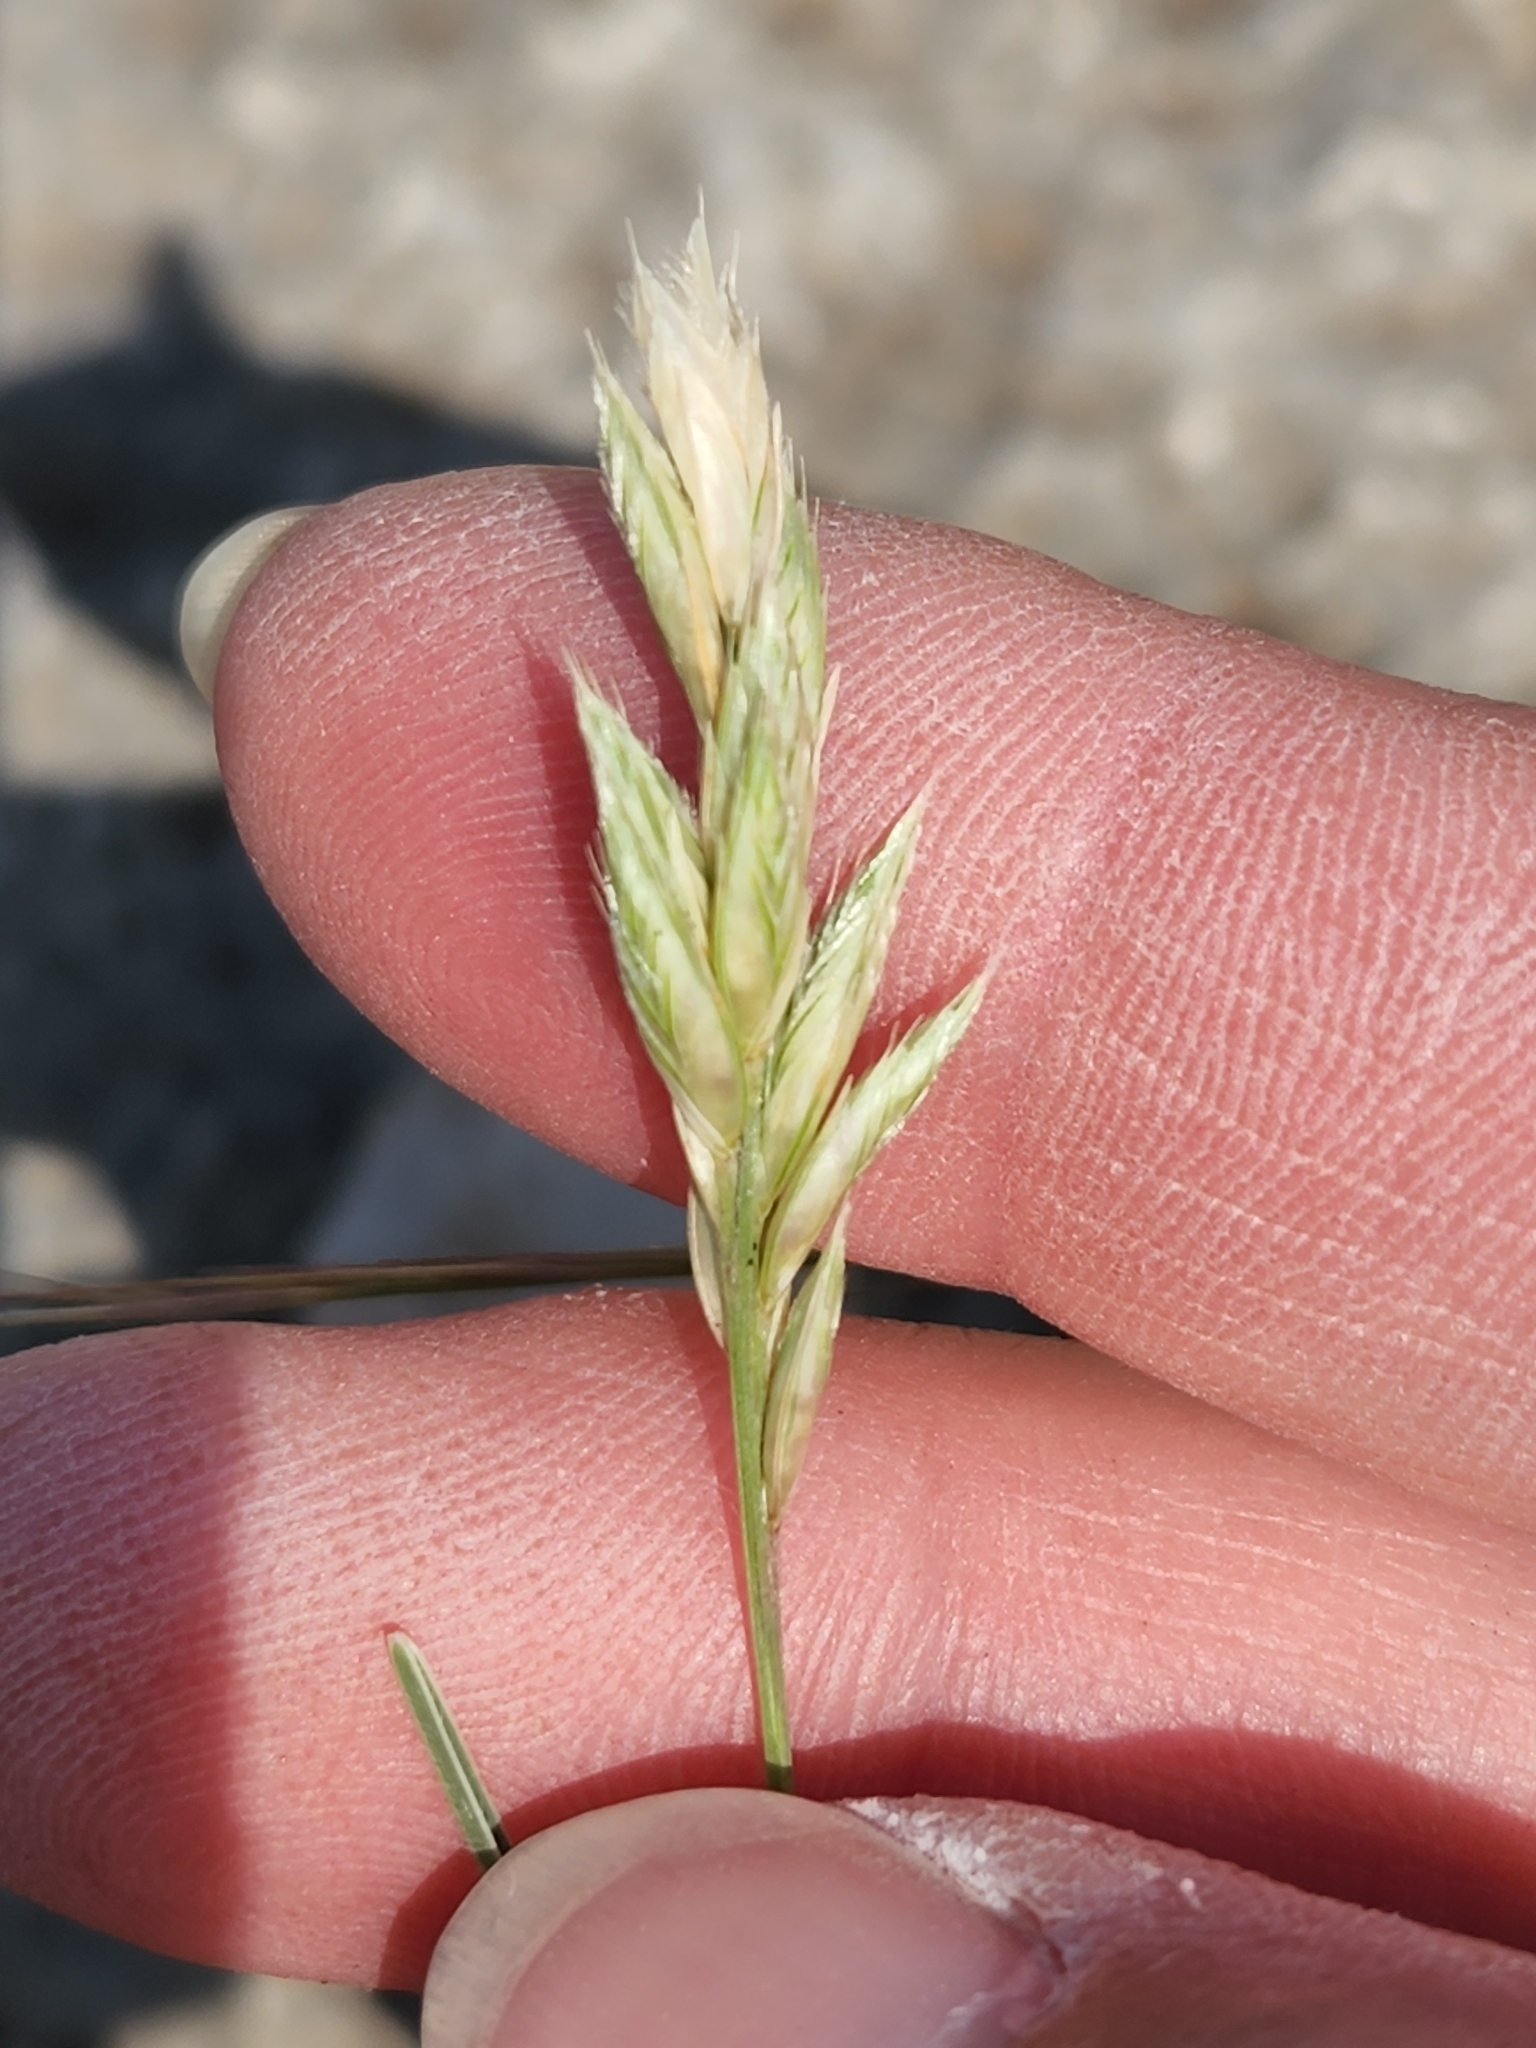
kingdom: Plantae
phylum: Tracheophyta
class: Liliopsida
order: Poales
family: Poaceae
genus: Erioneuron
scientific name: Erioneuron pilosum
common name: Hairy woolly grass
